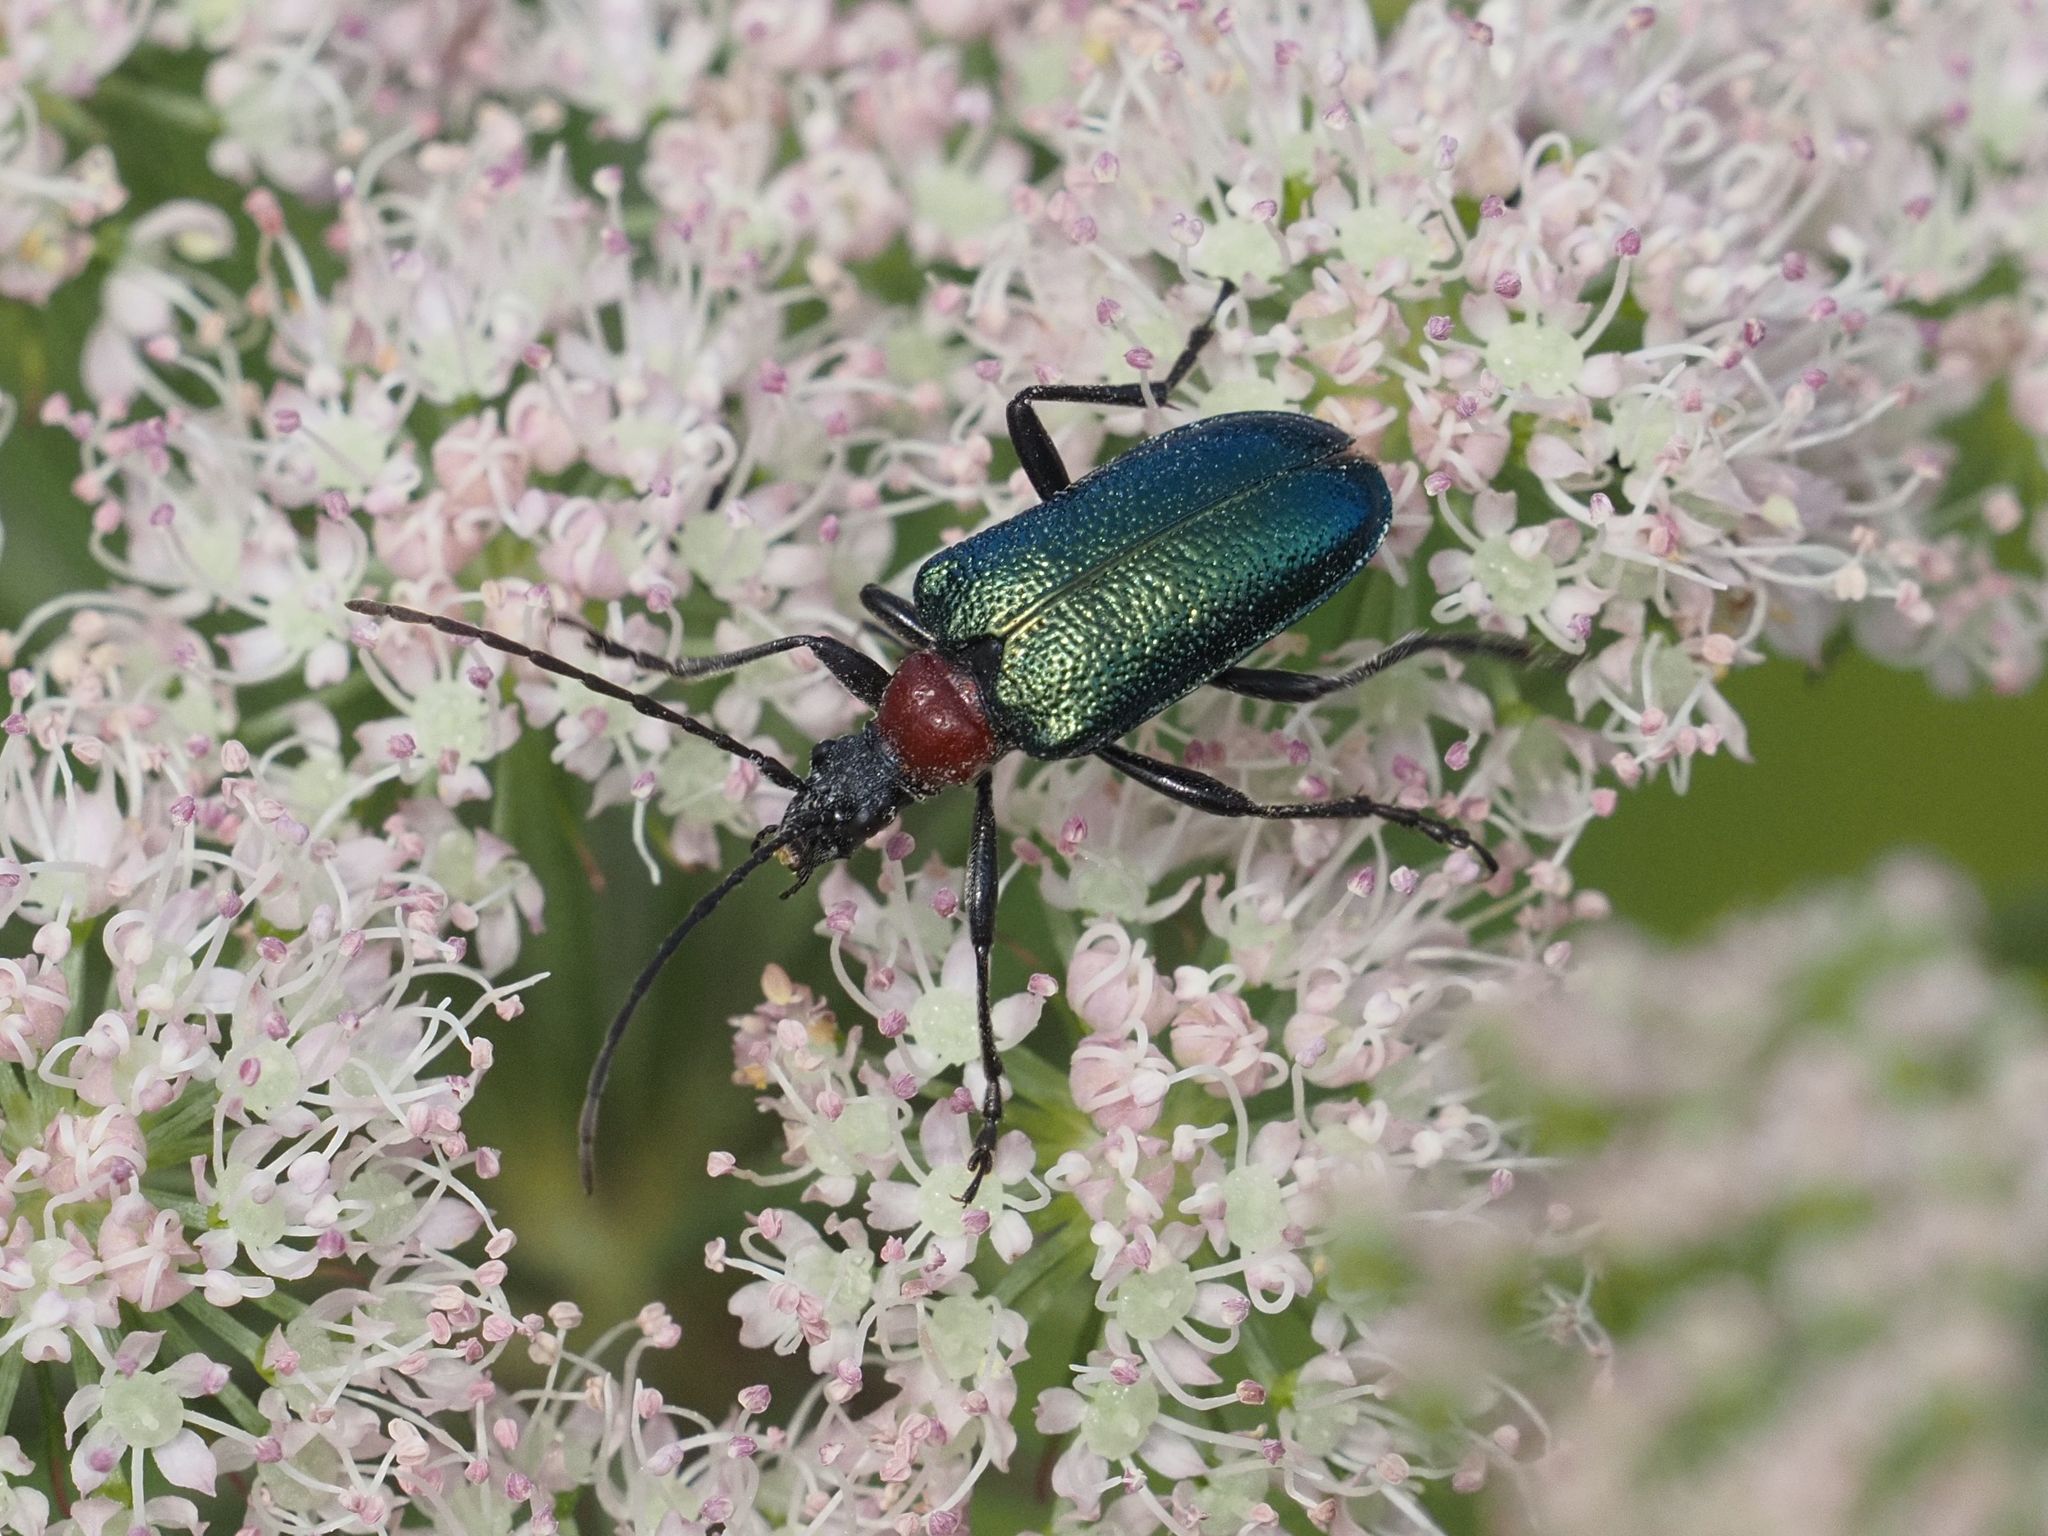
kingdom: Animalia
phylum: Arthropoda
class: Insecta
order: Coleoptera
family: Cerambycidae
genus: Gaurotes
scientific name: Gaurotes virginea
